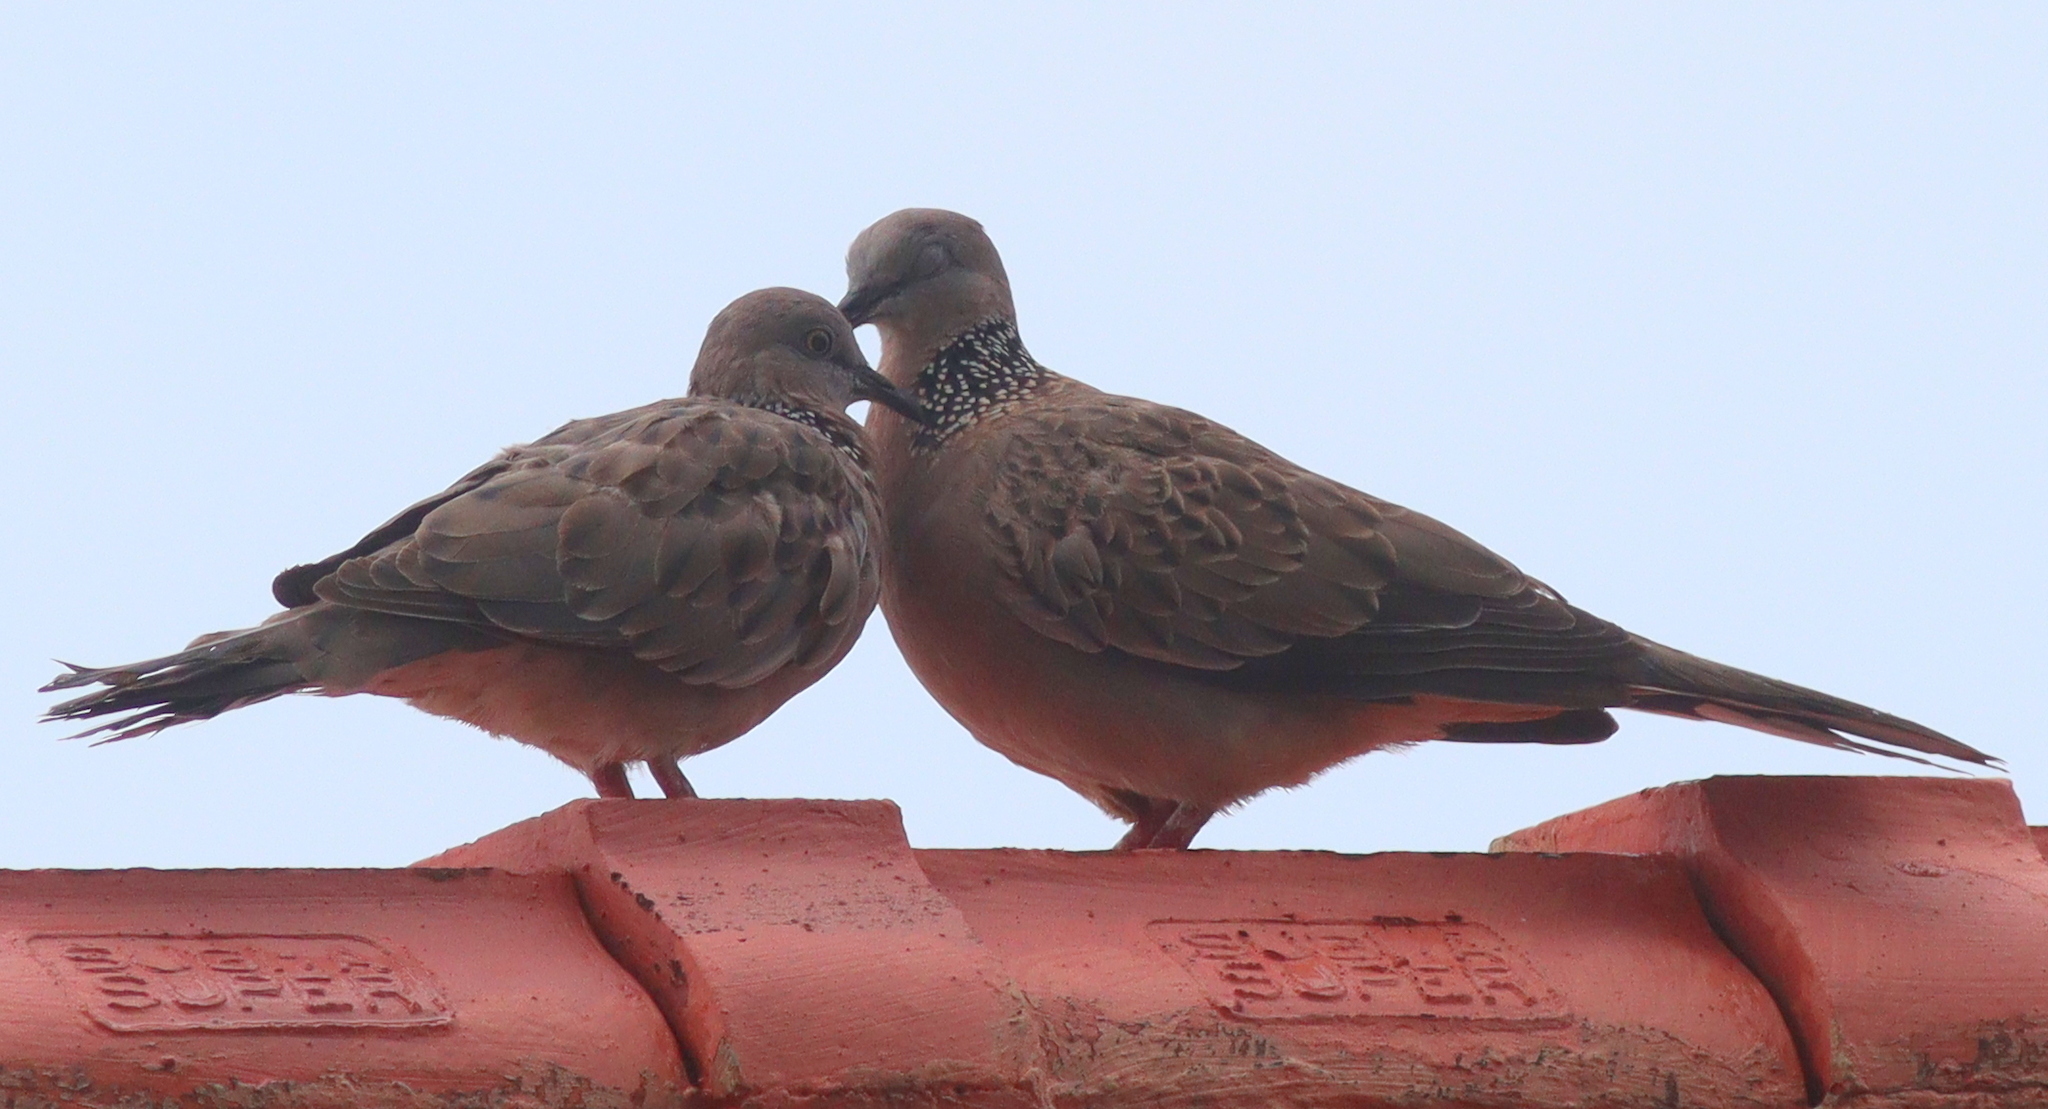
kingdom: Animalia
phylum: Chordata
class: Aves
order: Columbiformes
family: Columbidae
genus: Spilopelia
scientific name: Spilopelia chinensis
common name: Spotted dove
